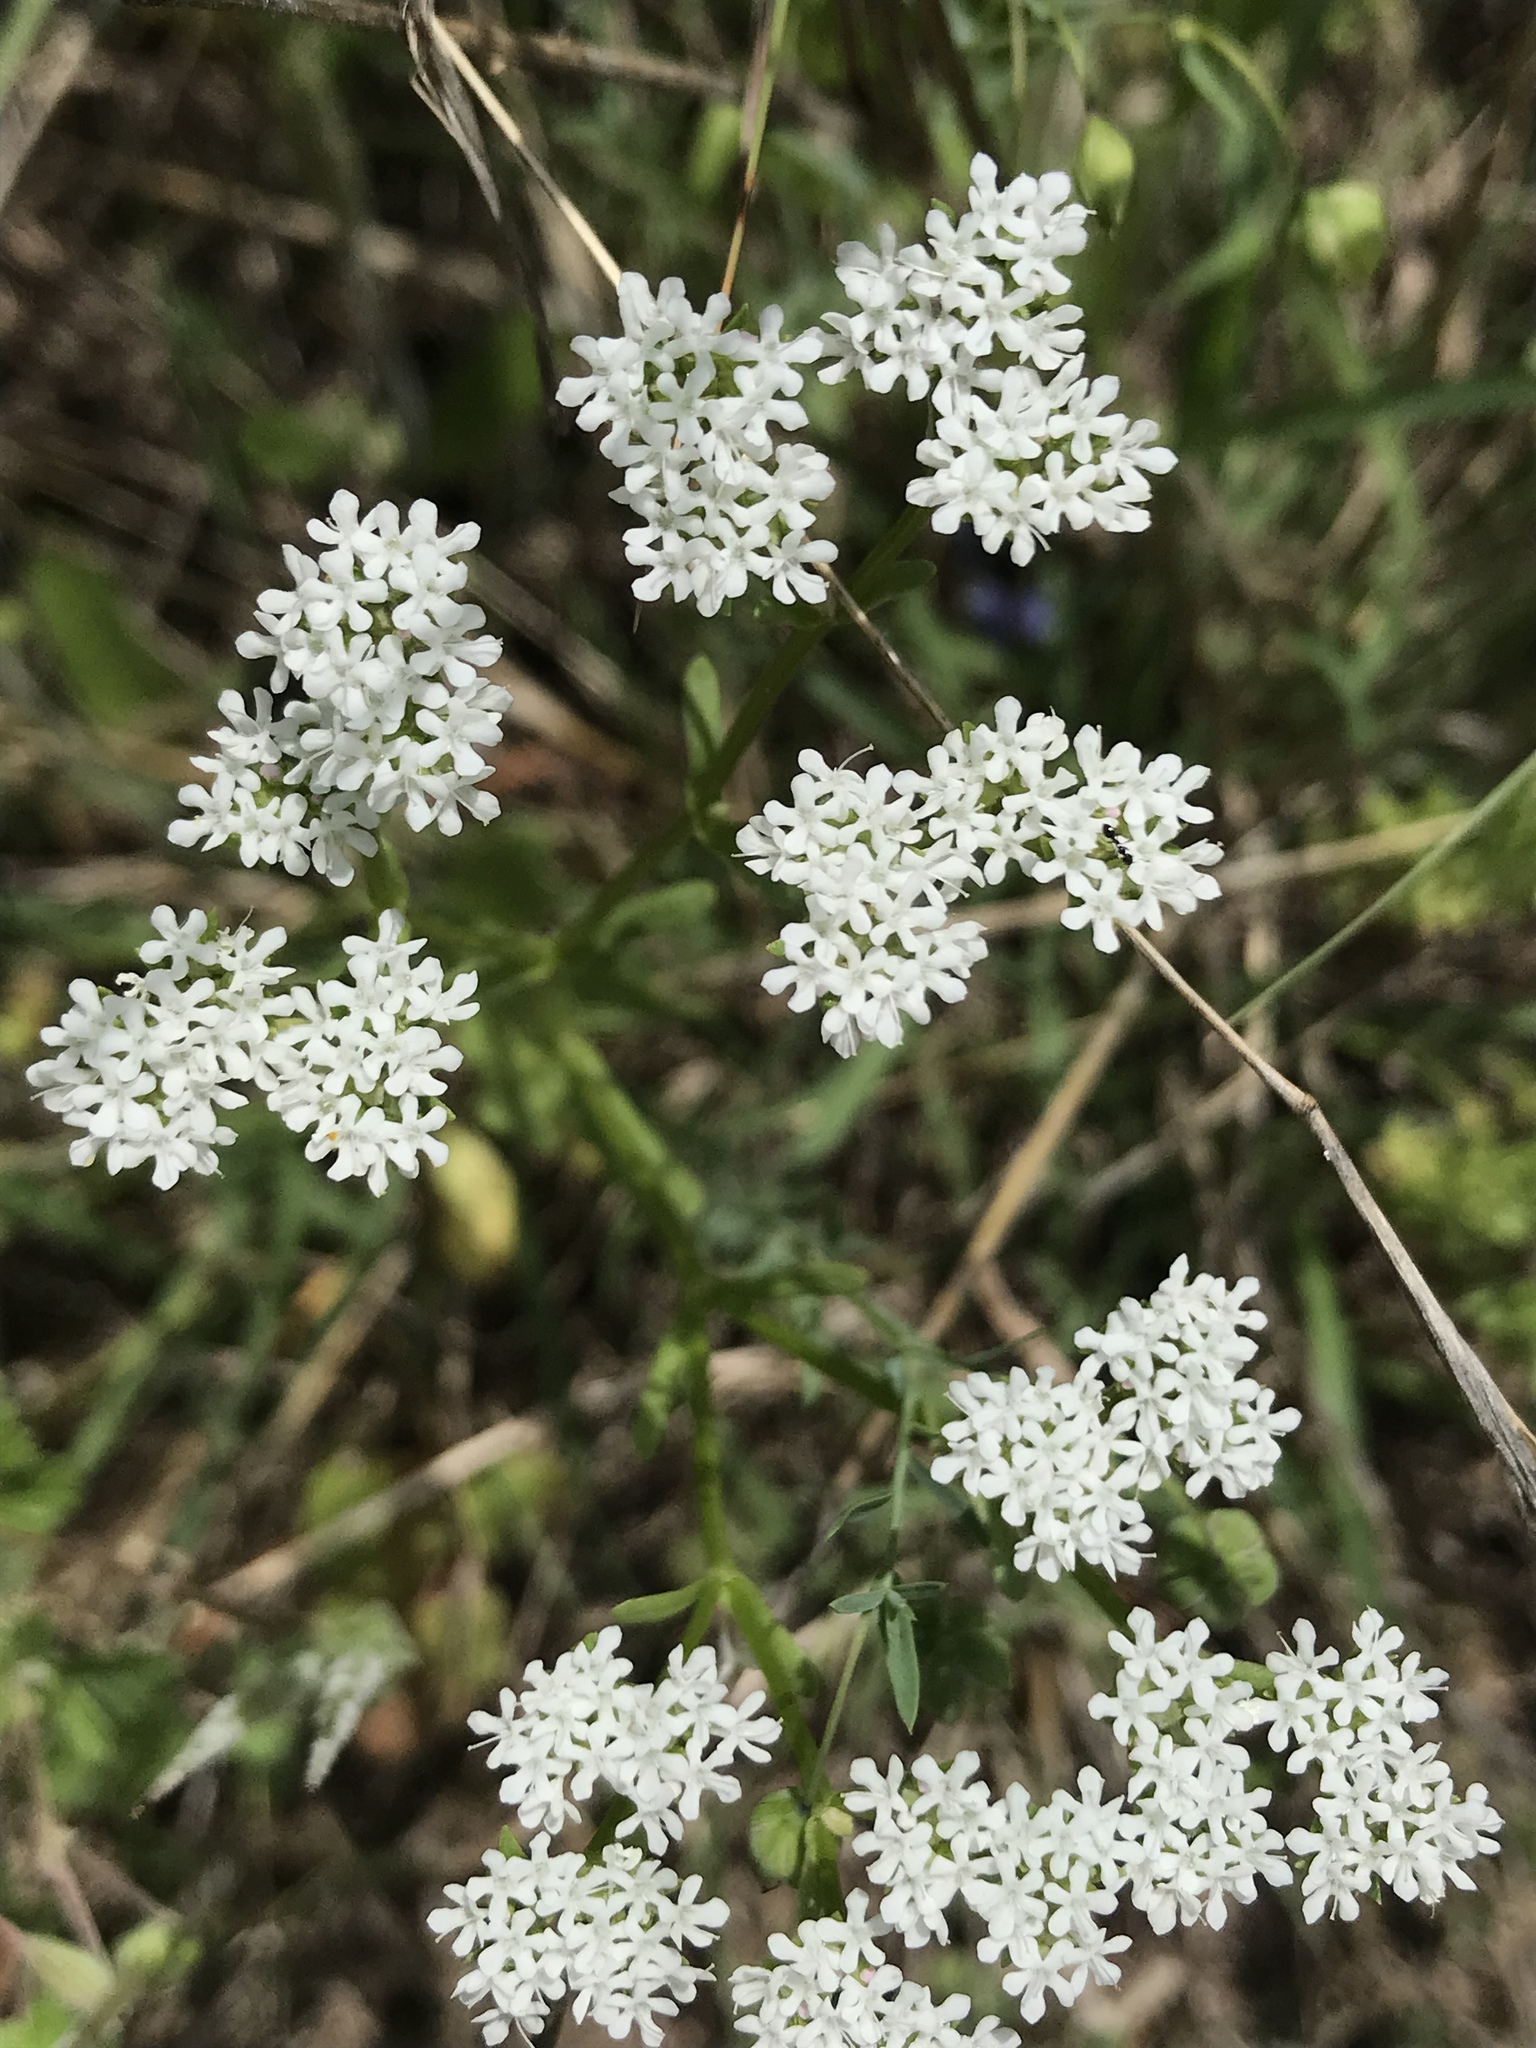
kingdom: Plantae
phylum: Tracheophyta
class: Magnoliopsida
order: Dipsacales
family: Caprifoliaceae
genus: Valerianella
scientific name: Valerianella amarella
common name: Hariy cornsalad
